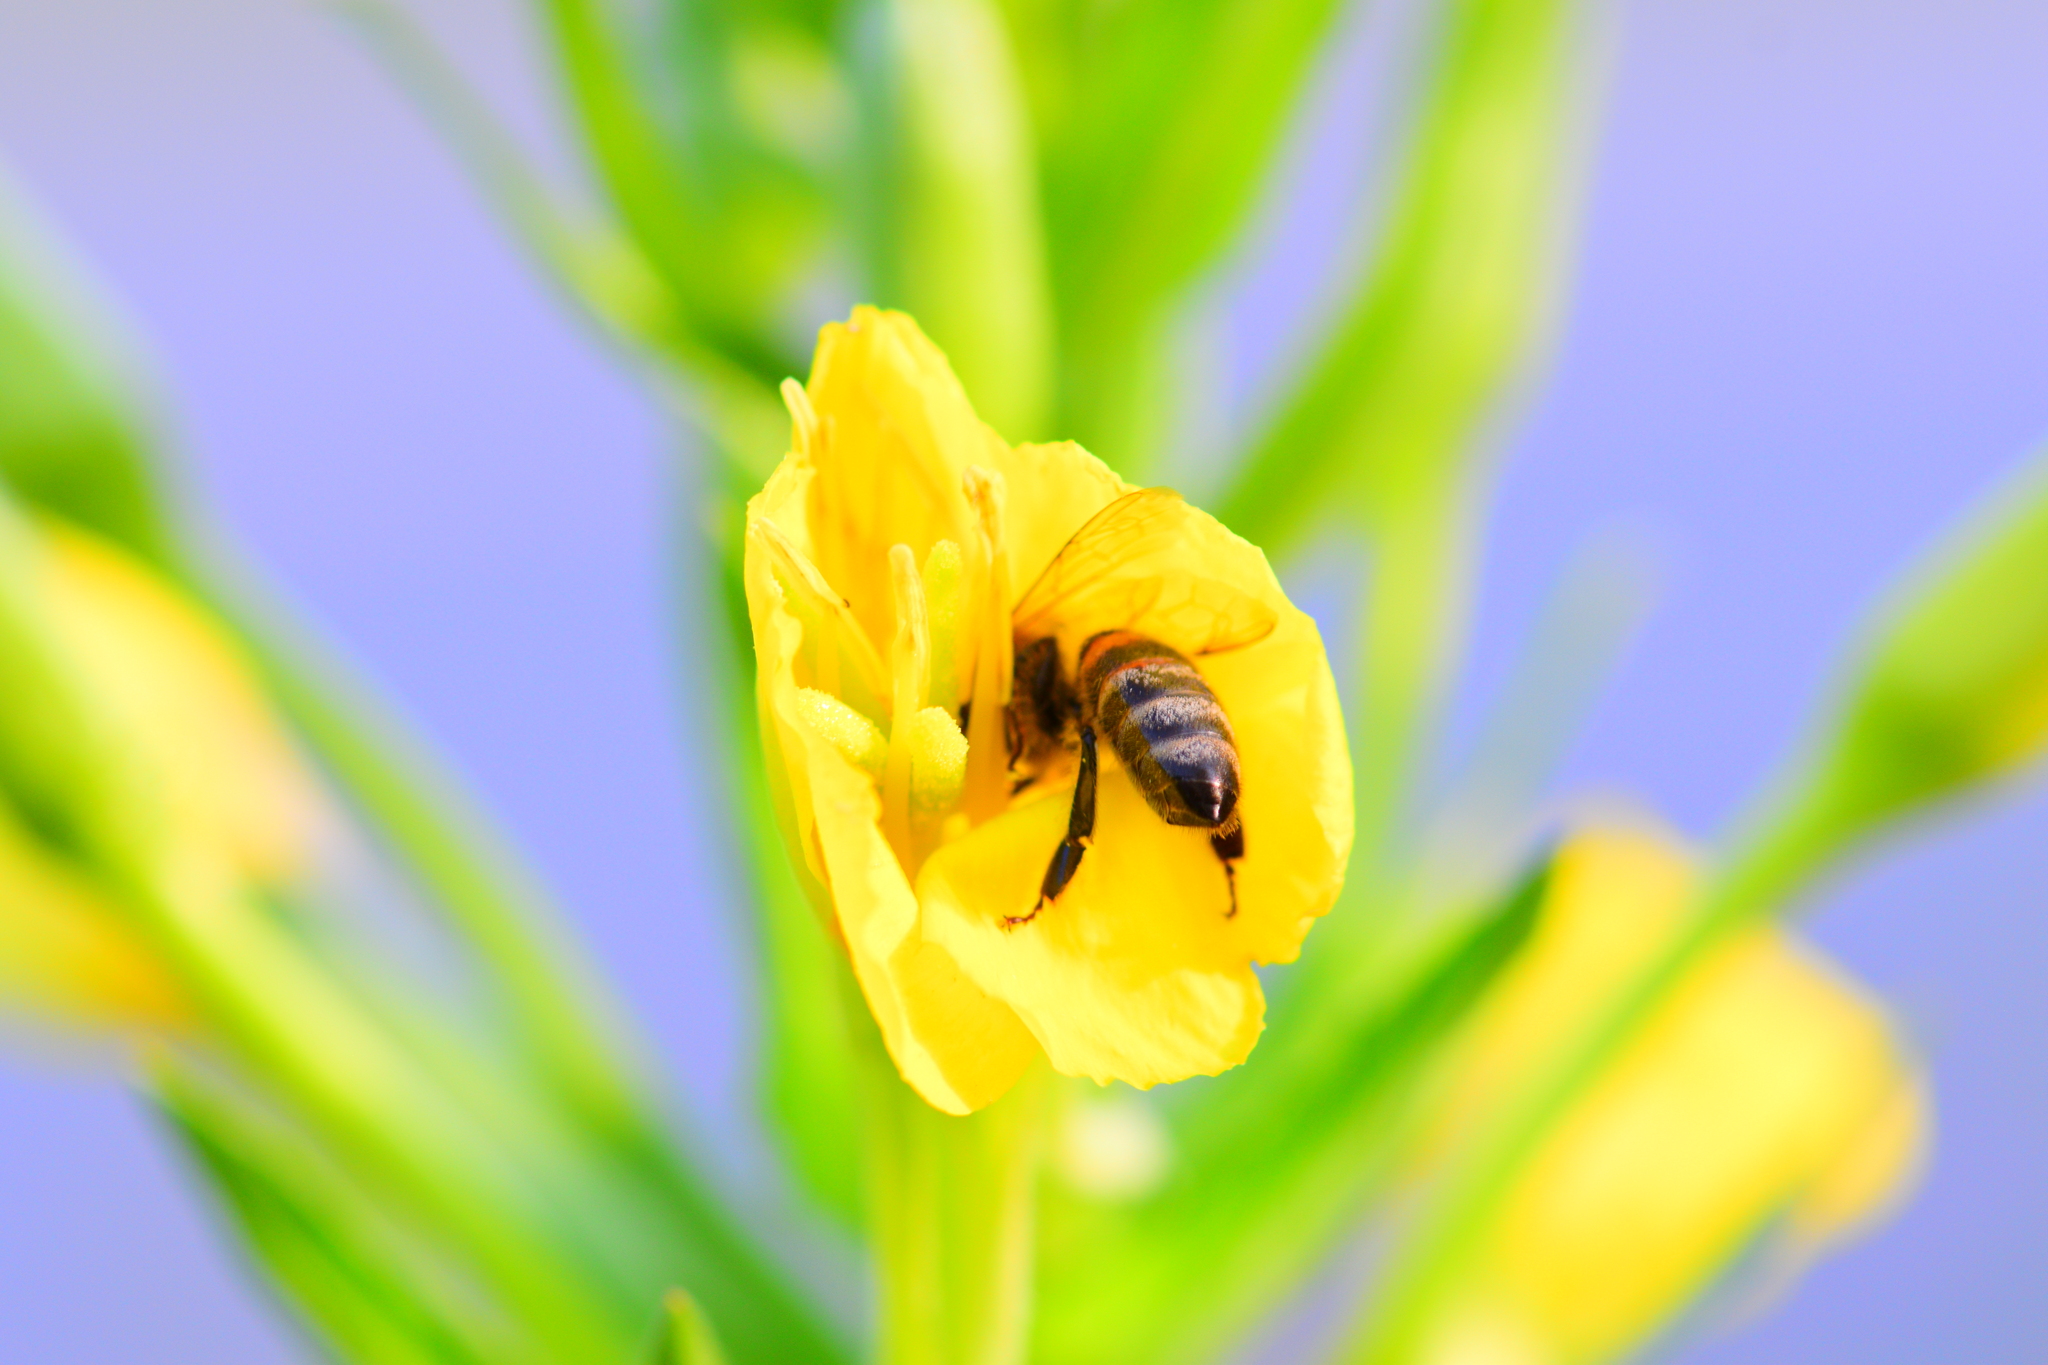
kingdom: Animalia
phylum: Arthropoda
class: Insecta
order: Hymenoptera
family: Apidae
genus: Apis
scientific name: Apis mellifera
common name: Honey bee
